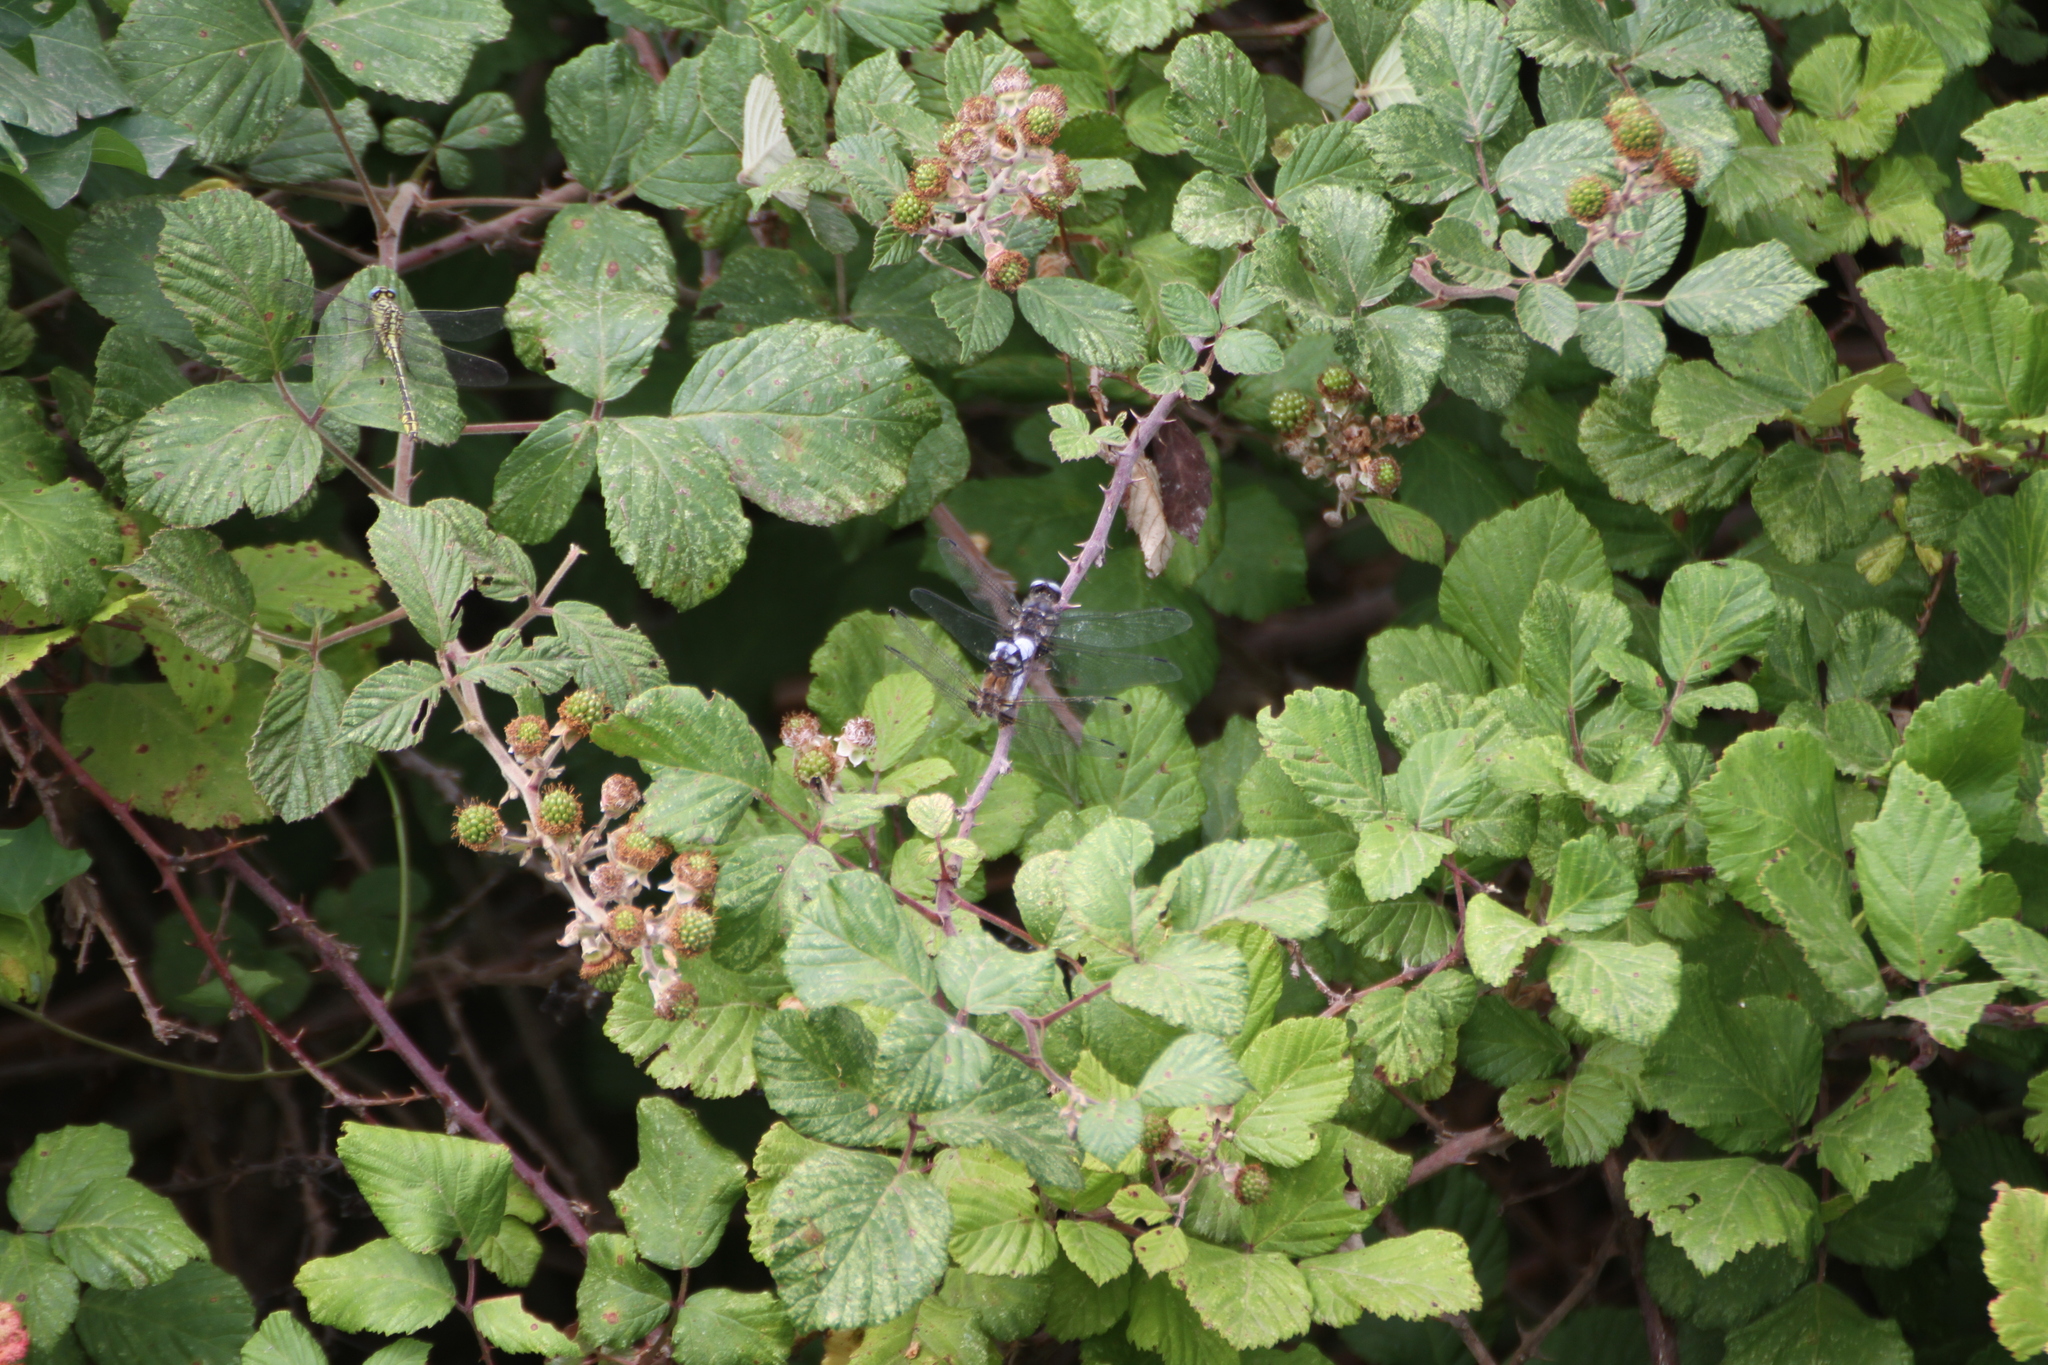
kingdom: Animalia
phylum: Arthropoda
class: Insecta
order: Odonata
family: Libellulidae
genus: Libellula
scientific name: Libellula fulva
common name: Blue chaser
